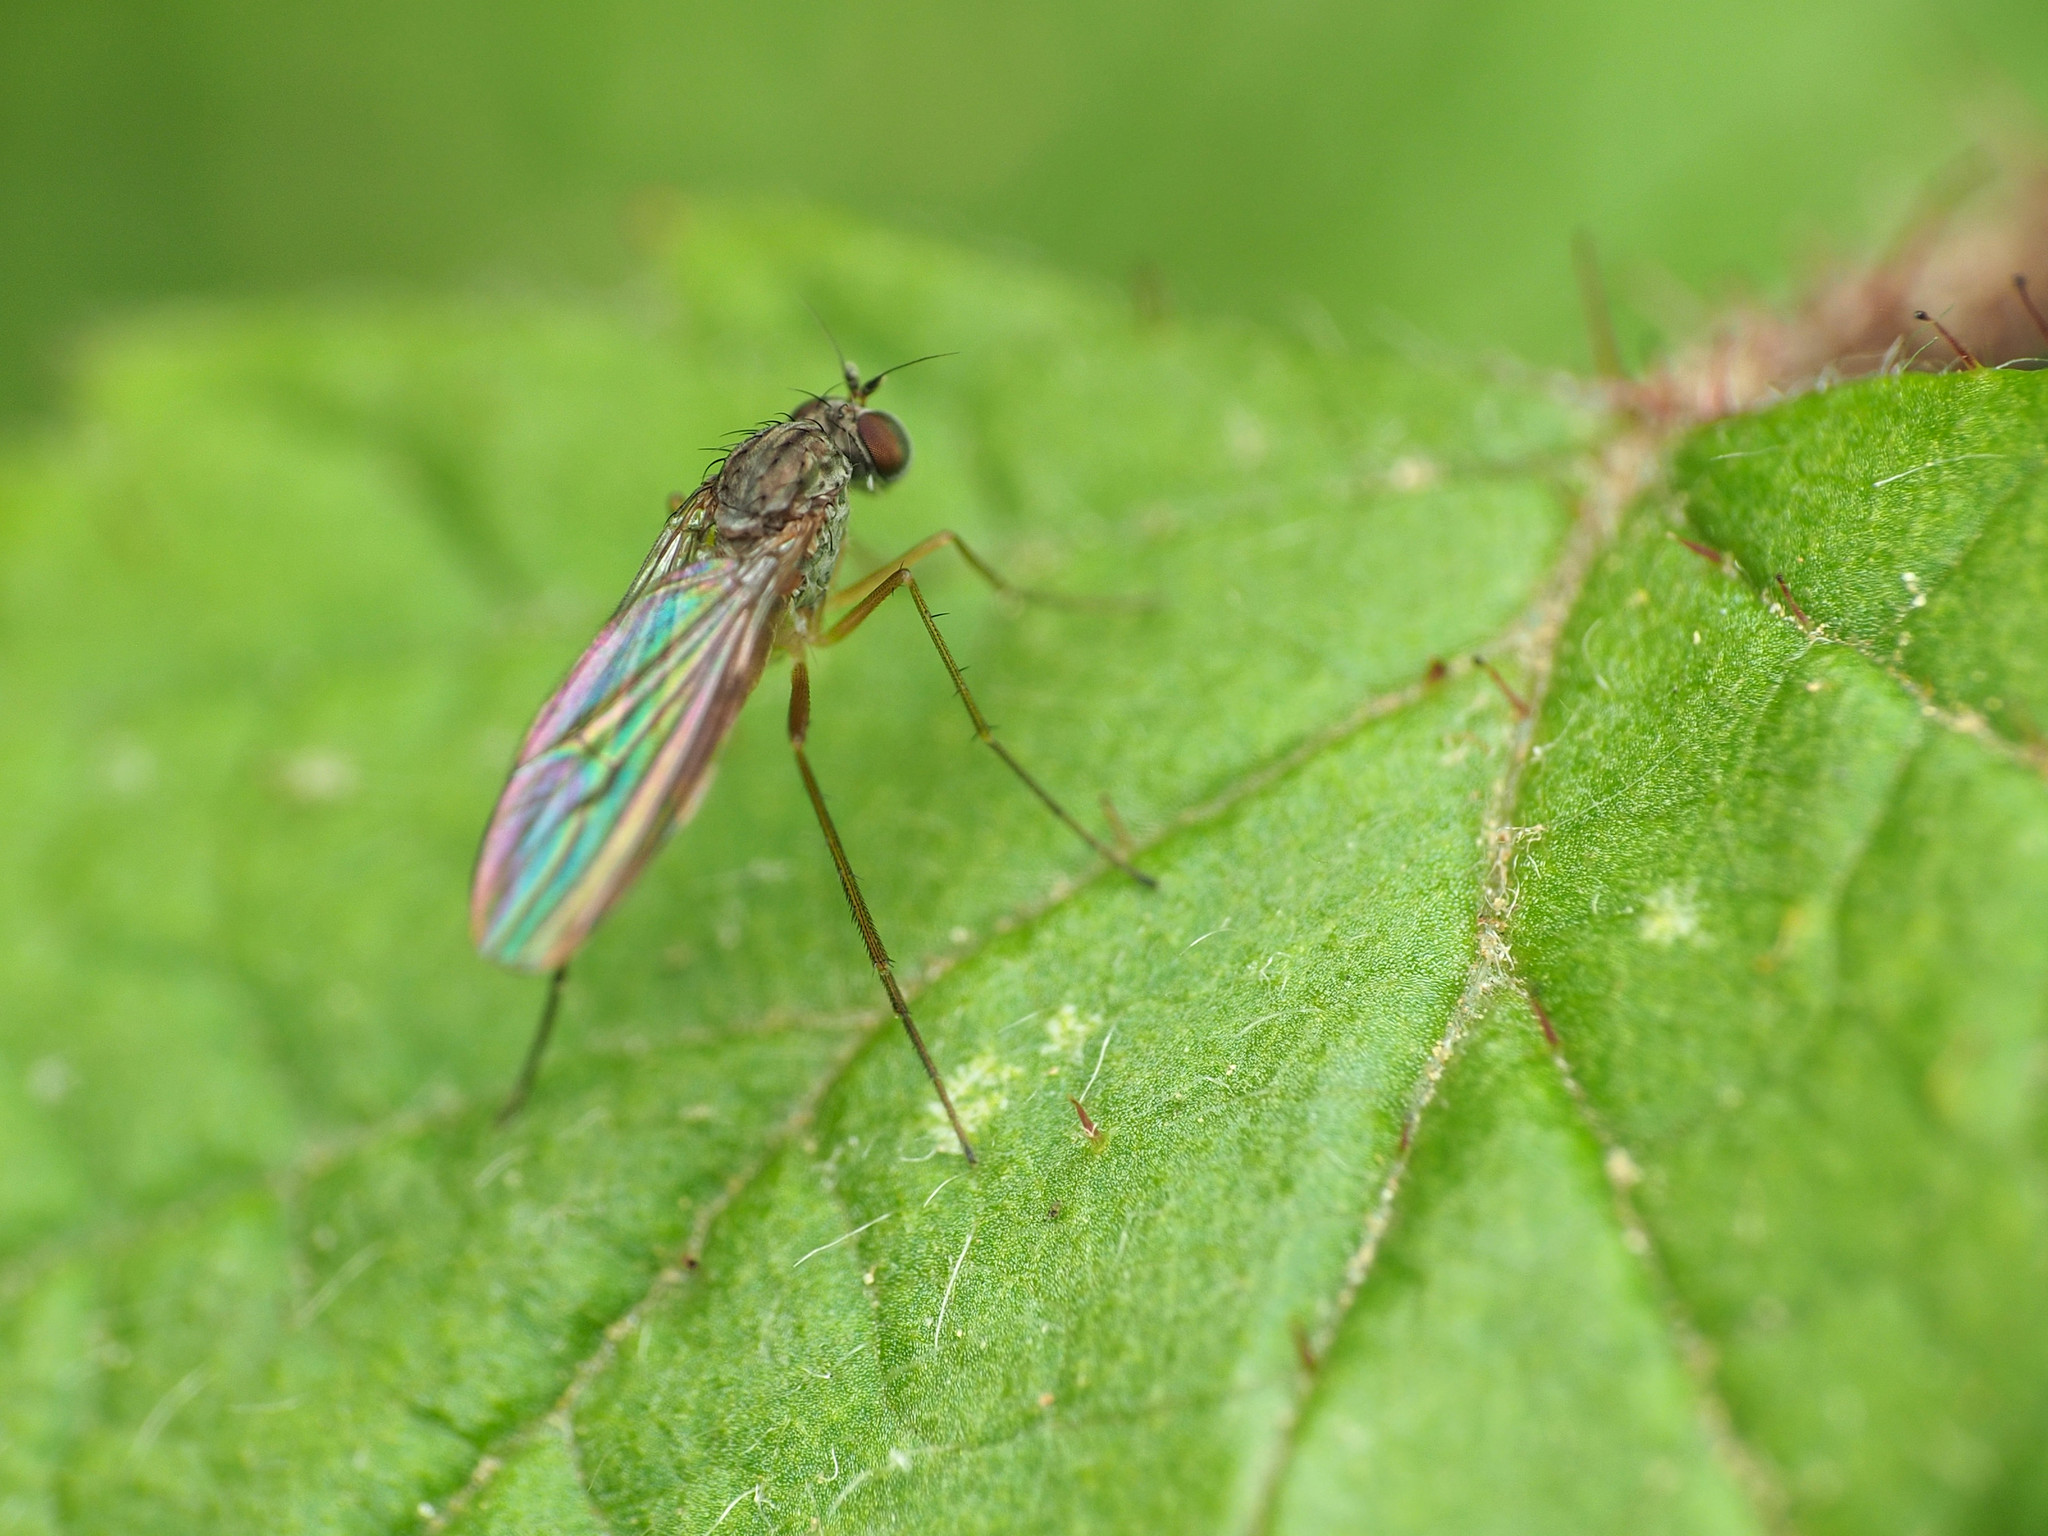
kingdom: Animalia
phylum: Arthropoda
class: Insecta
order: Diptera
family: Dolichopodidae
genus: Sympycnus
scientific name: Sympycnus lineatus
